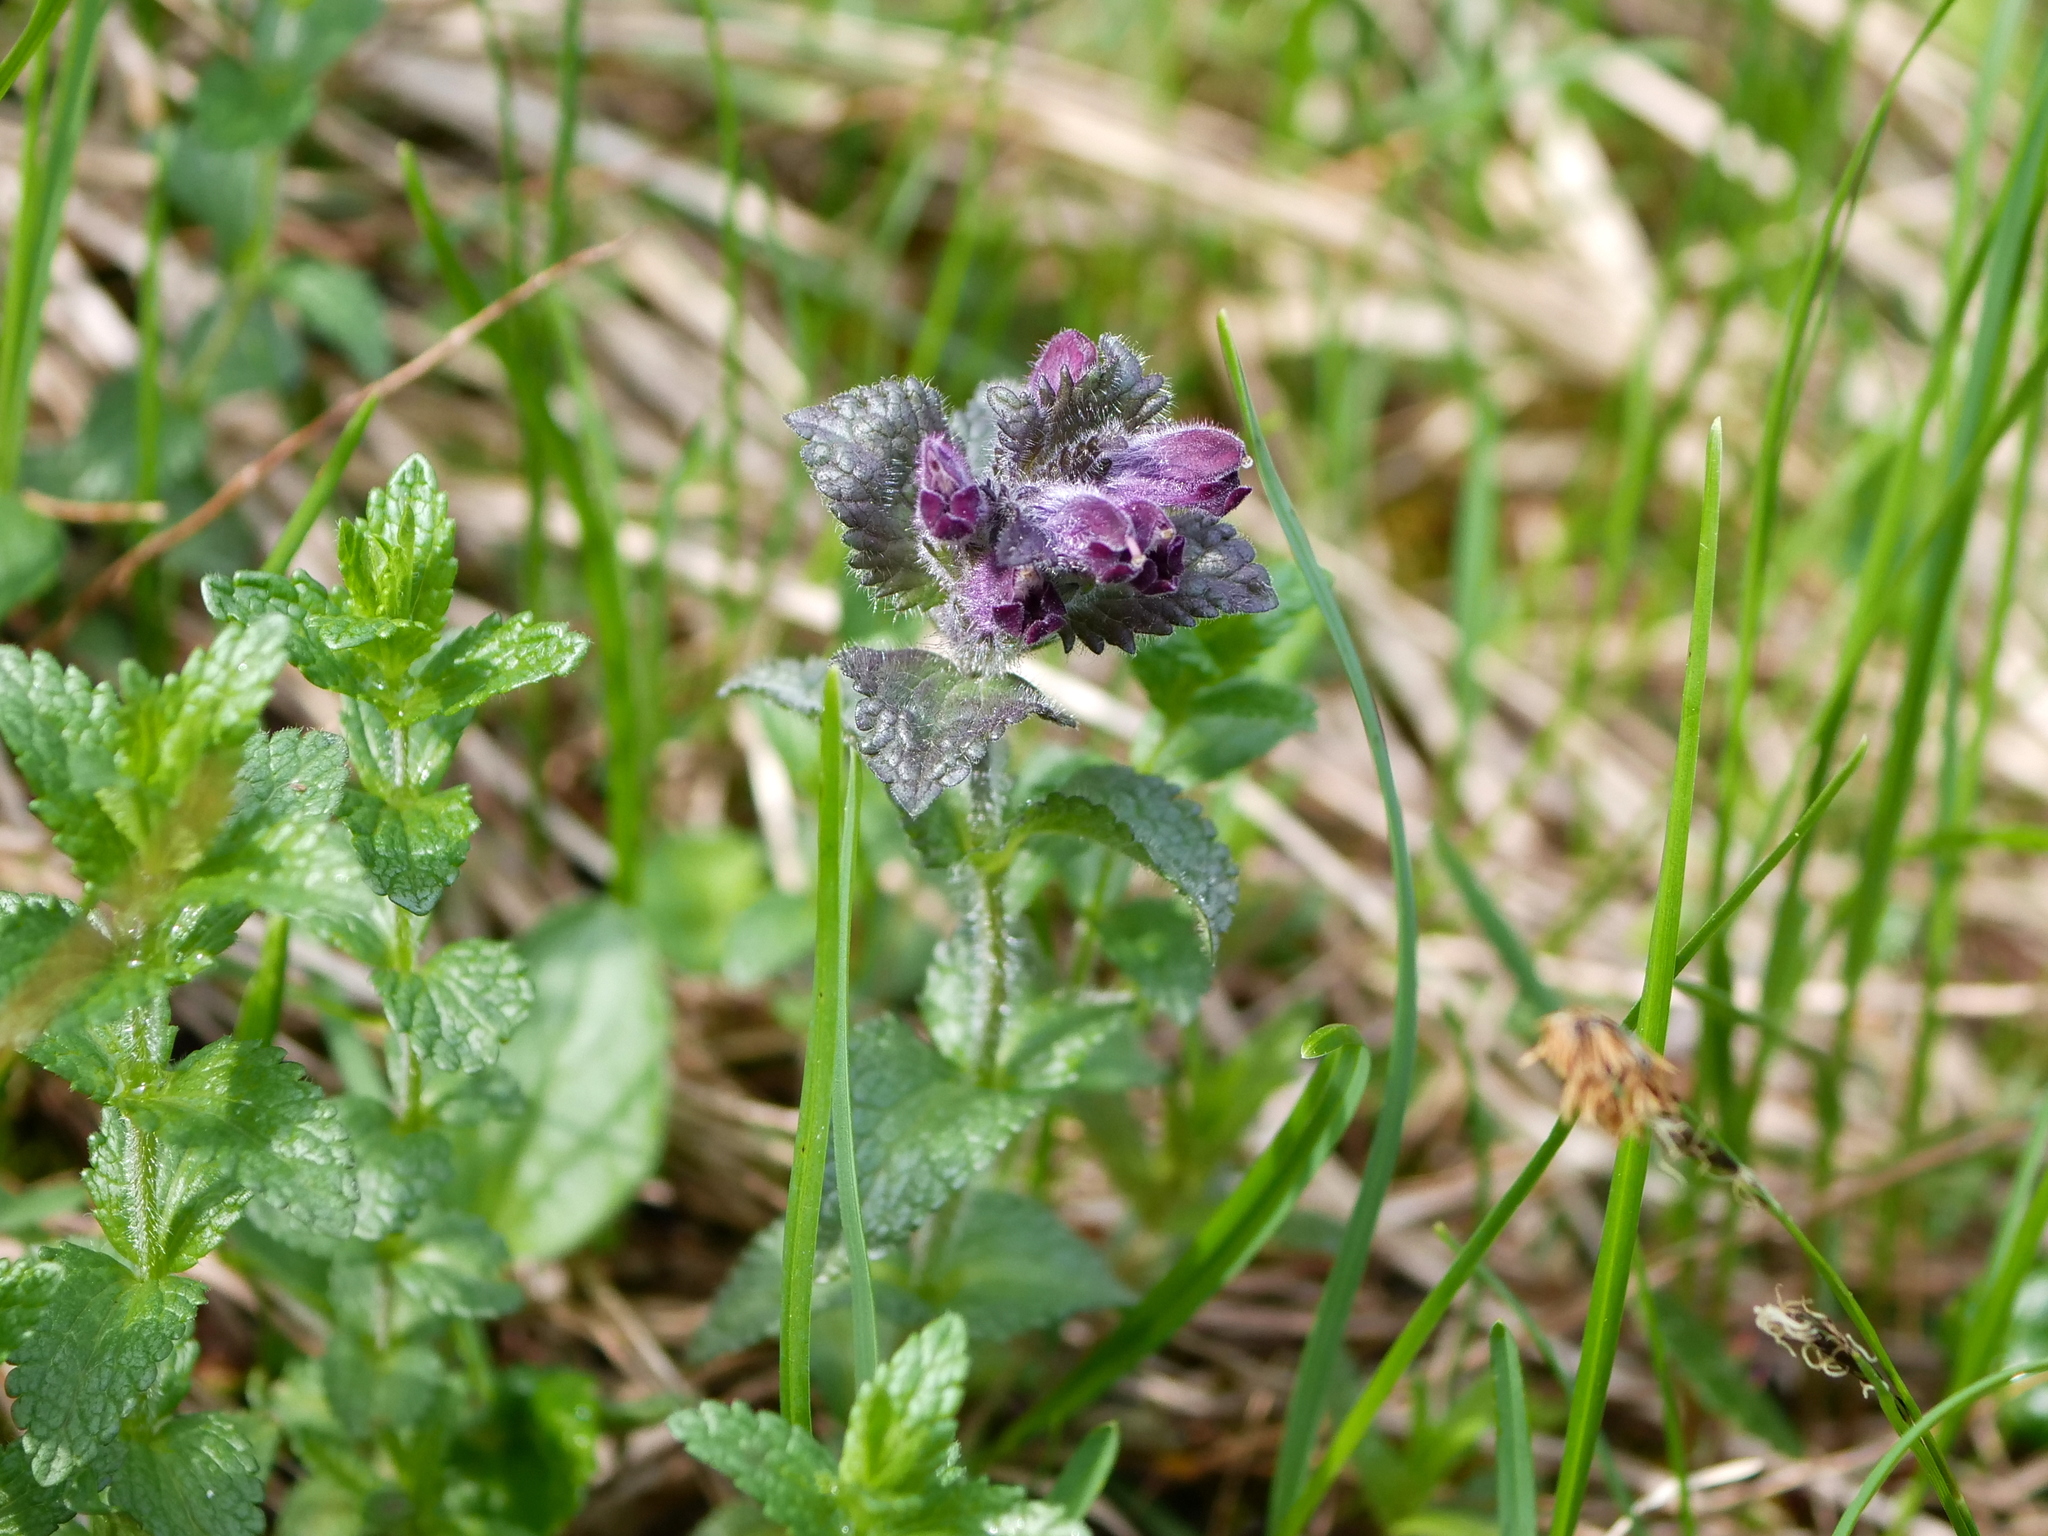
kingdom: Plantae
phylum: Tracheophyta
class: Magnoliopsida
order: Lamiales
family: Orobanchaceae
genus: Bartsia
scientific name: Bartsia alpina
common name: Alpine bartsia
